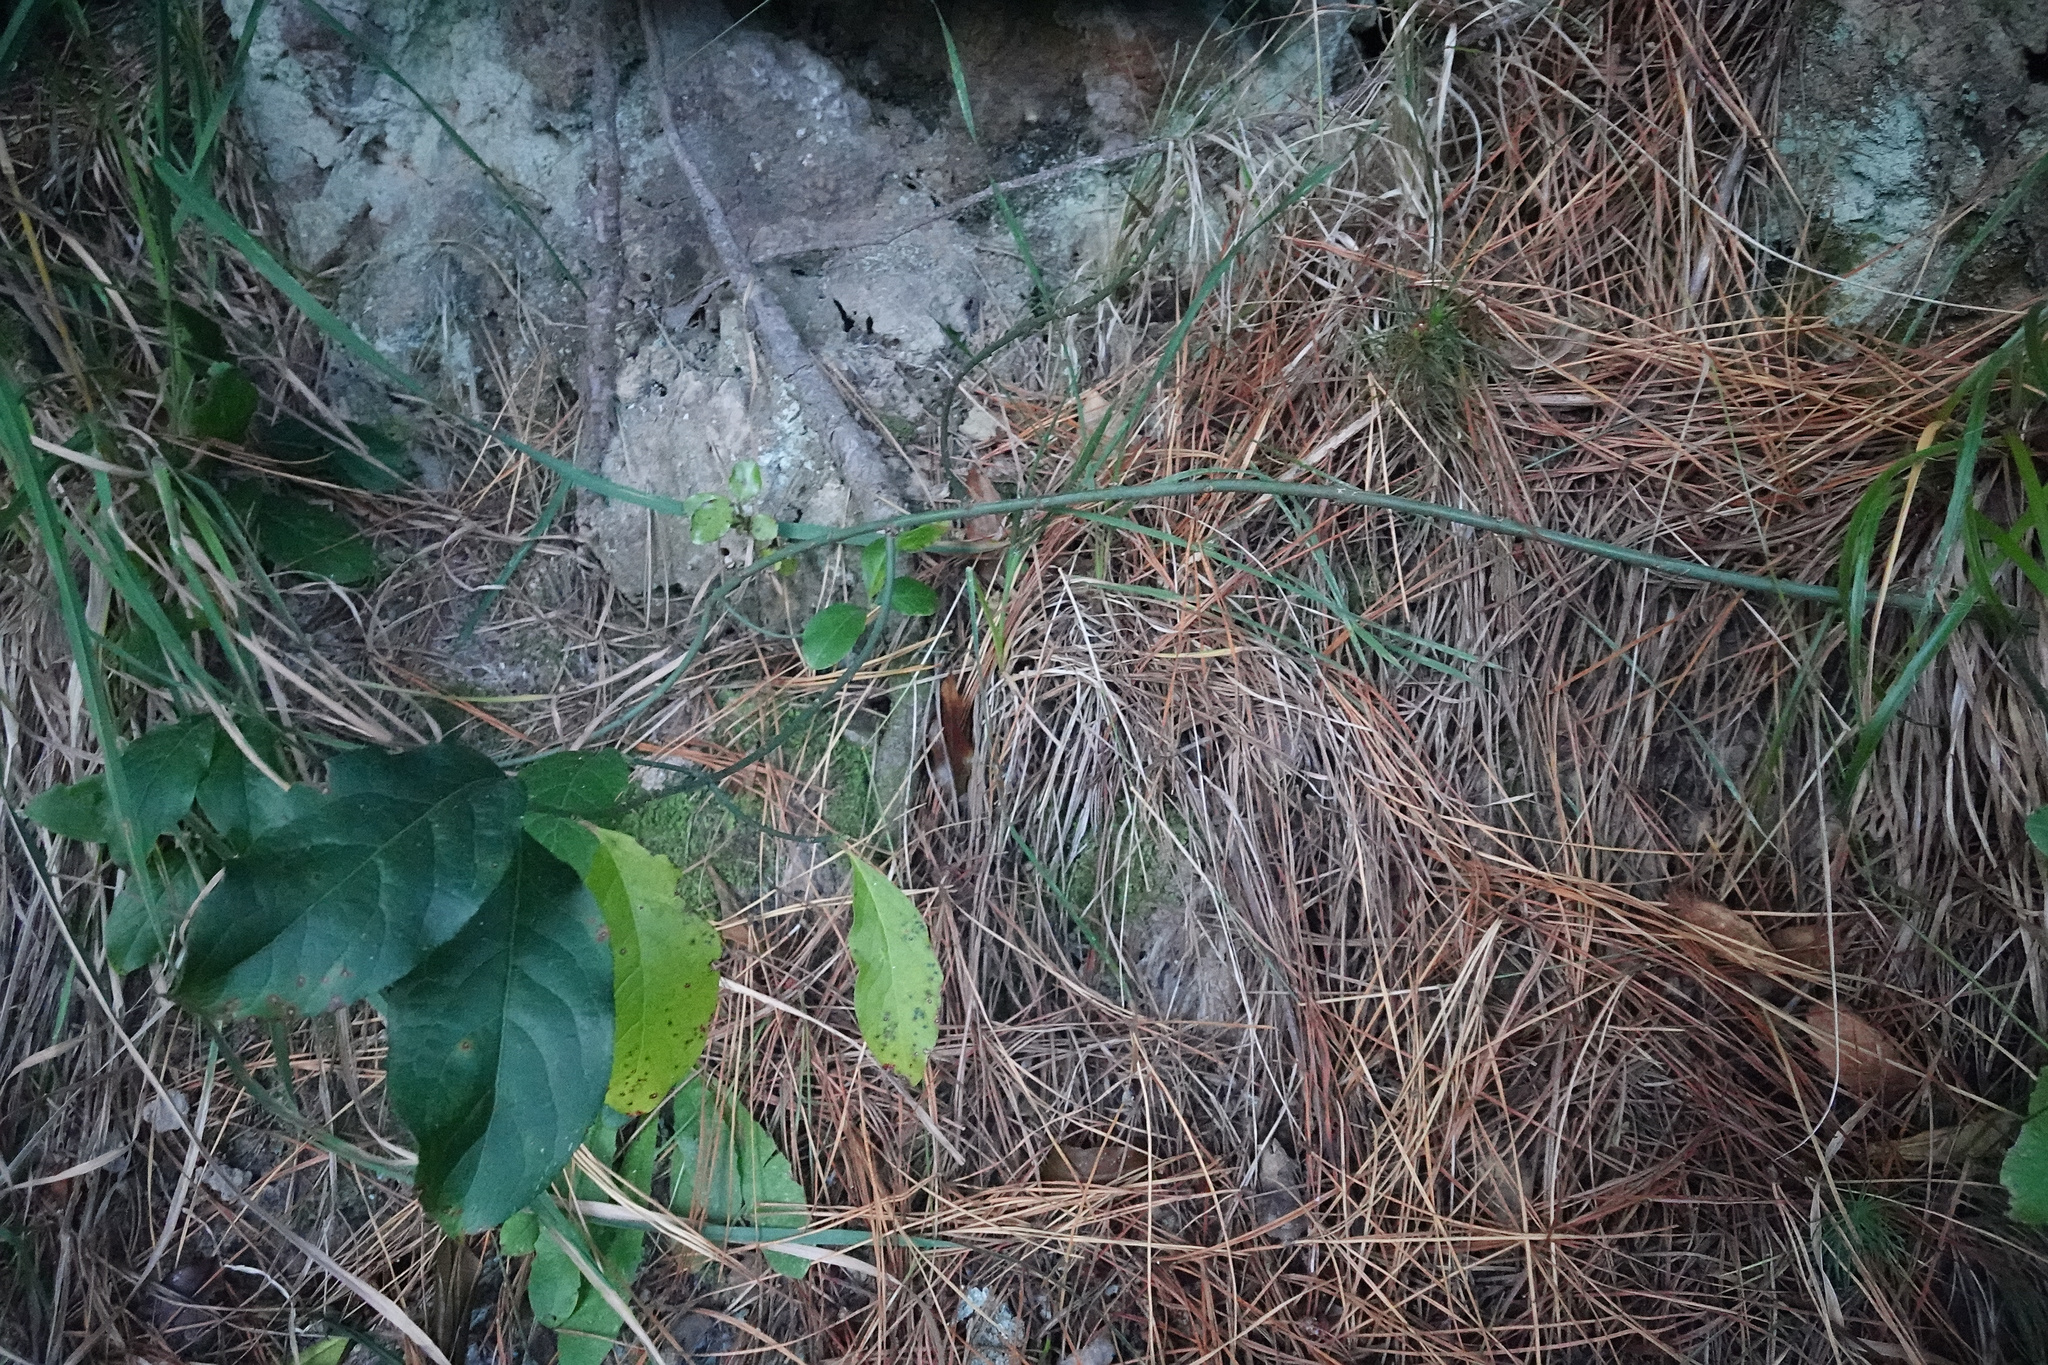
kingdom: Plantae
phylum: Tracheophyta
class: Magnoliopsida
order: Celastrales
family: Celastraceae
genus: Euonymus
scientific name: Euonymus europaeus
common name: Spindle
